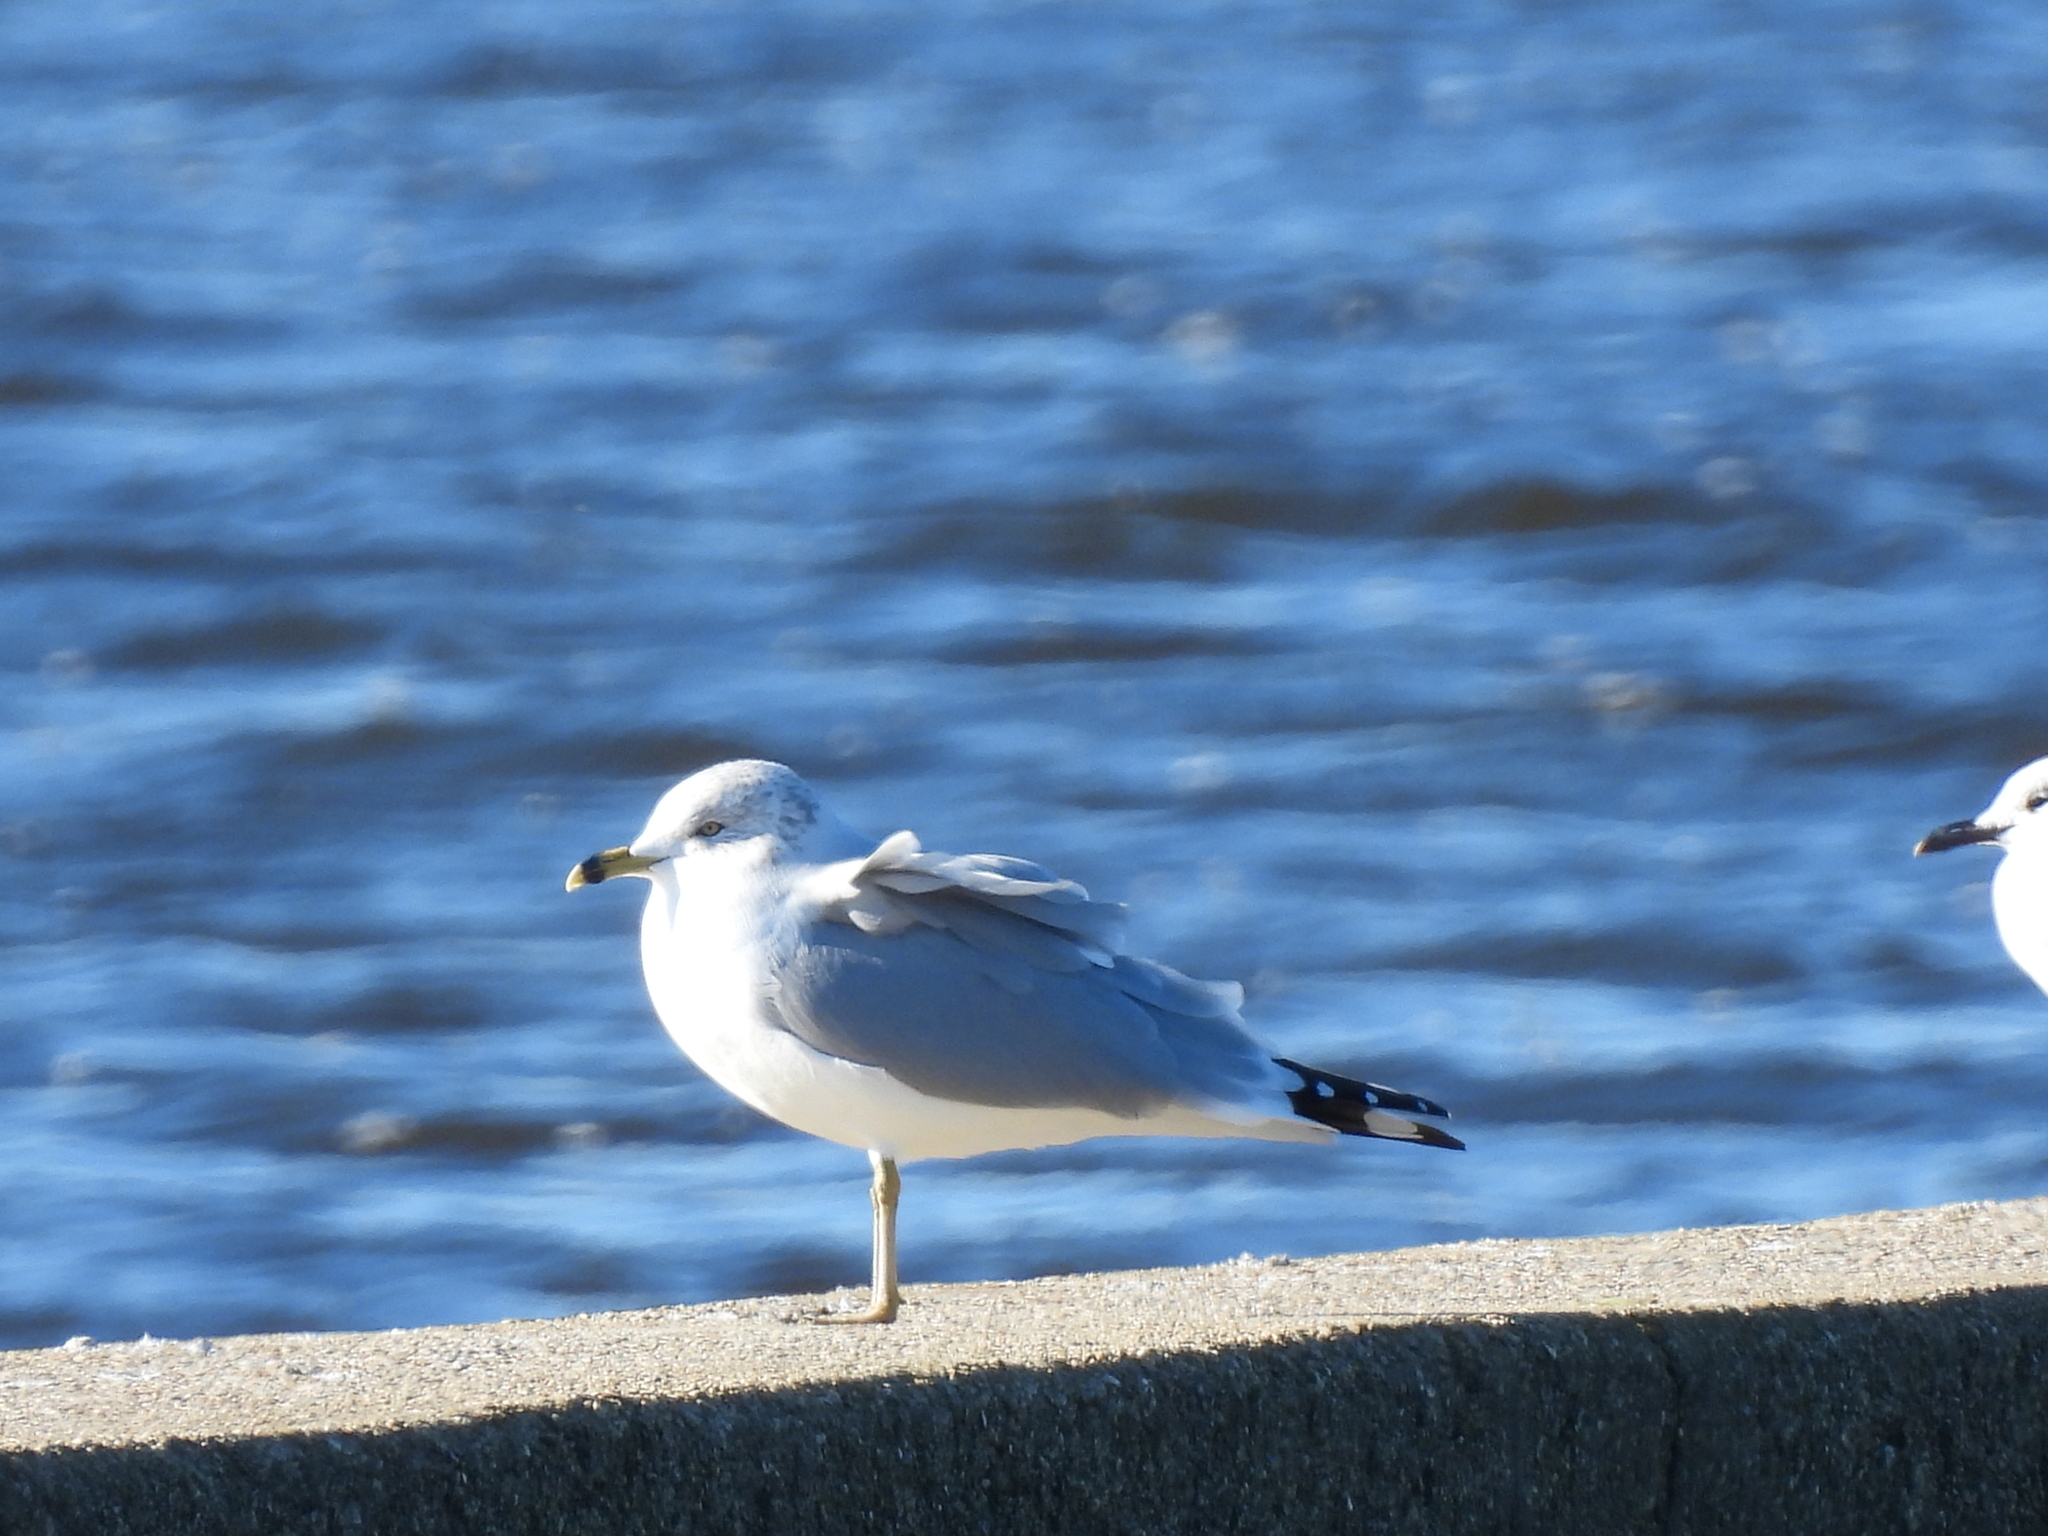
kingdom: Animalia
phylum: Chordata
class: Aves
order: Charadriiformes
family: Laridae
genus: Larus
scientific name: Larus delawarensis
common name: Ring-billed gull
